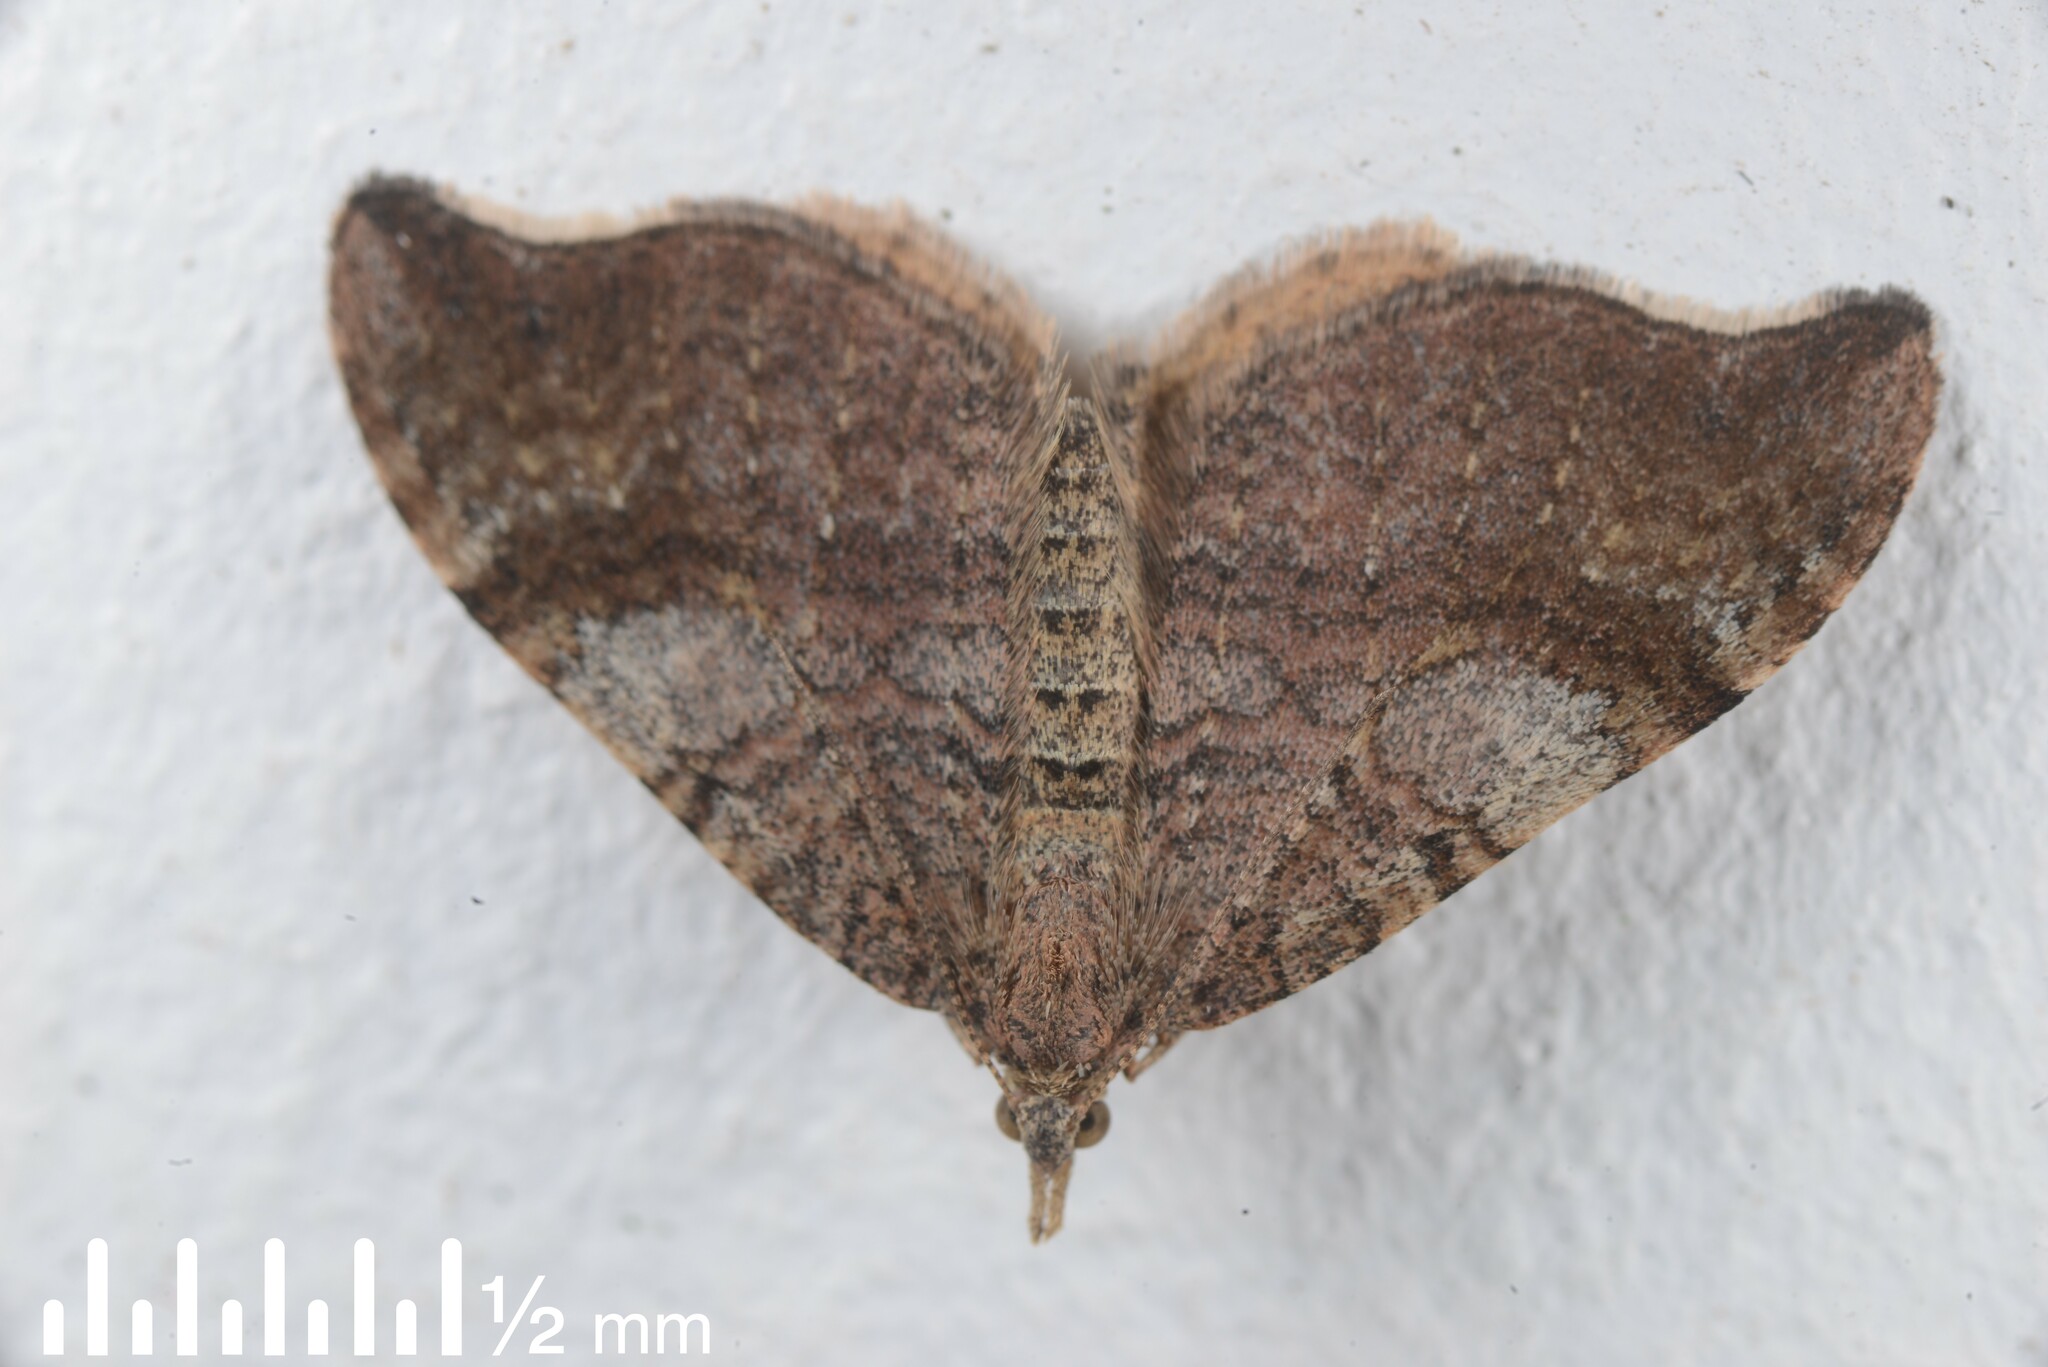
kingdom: Animalia
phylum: Arthropoda
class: Insecta
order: Lepidoptera
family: Geometridae
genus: Homodotis
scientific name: Homodotis megaspilata
